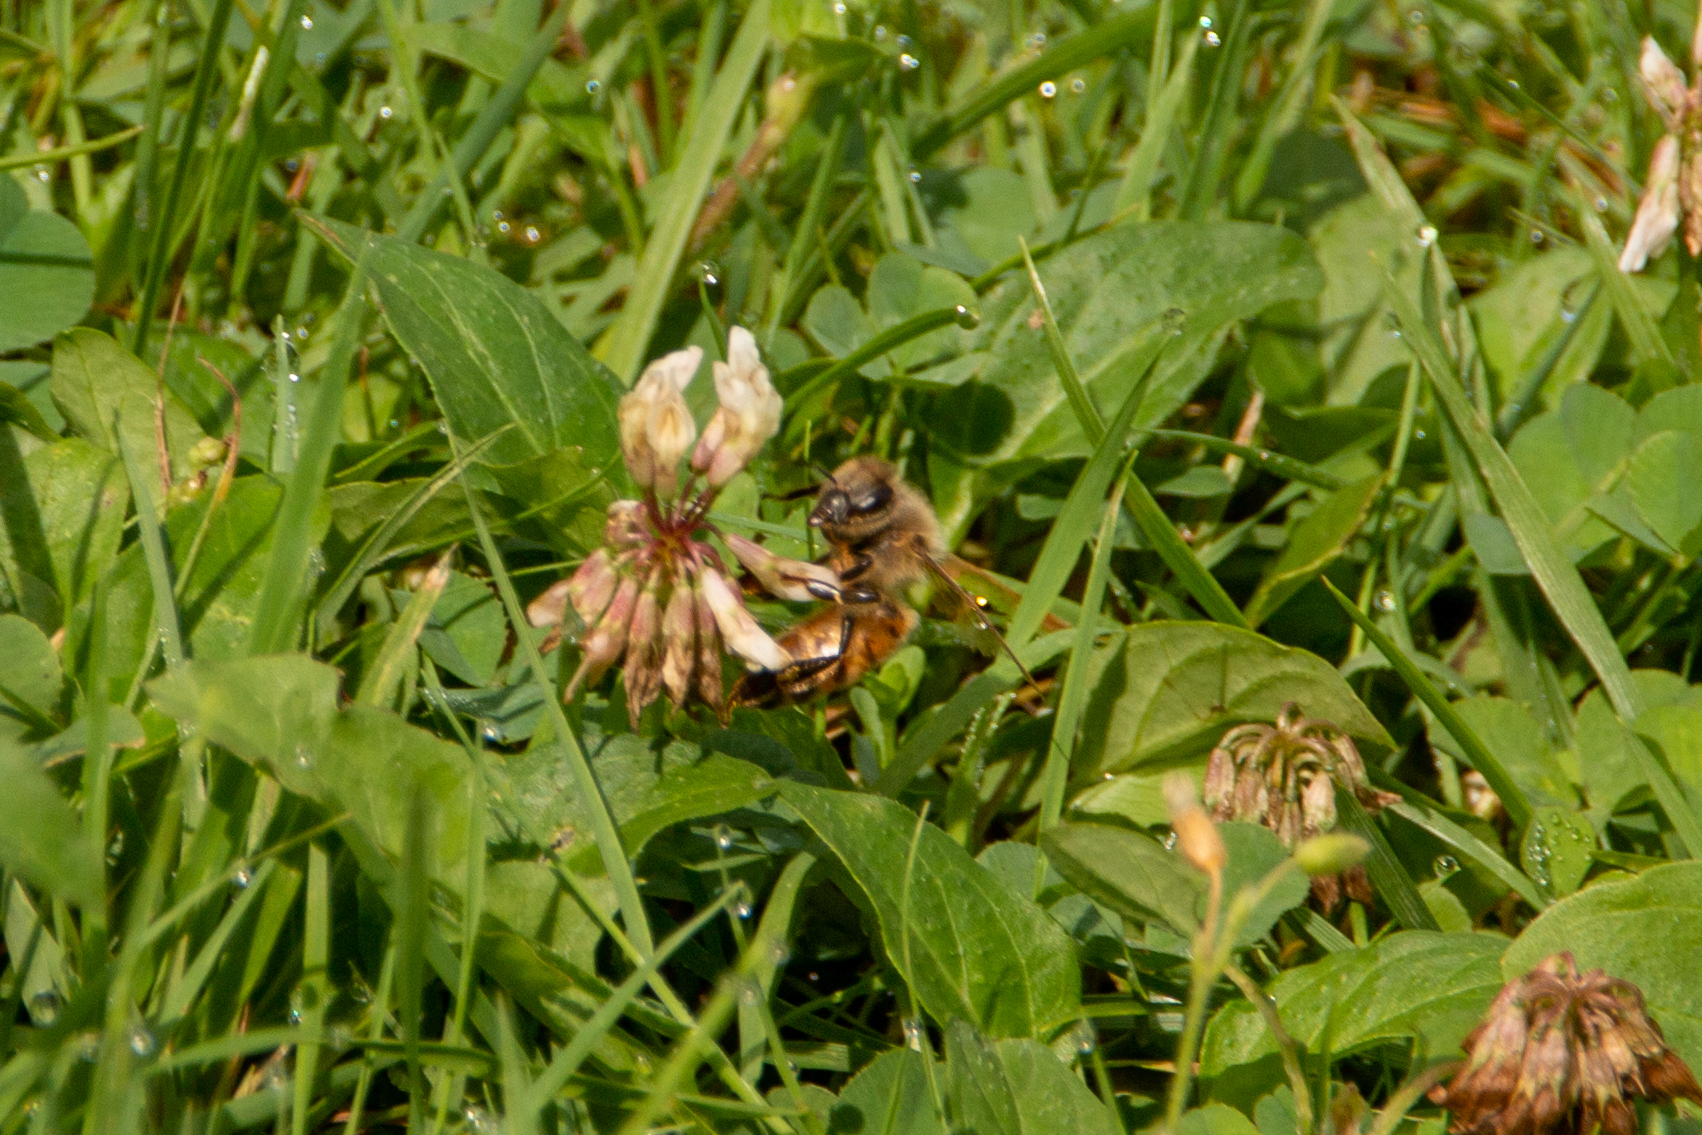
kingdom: Animalia
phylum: Arthropoda
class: Insecta
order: Hymenoptera
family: Apidae
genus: Apis
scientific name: Apis mellifera
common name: Honey bee
